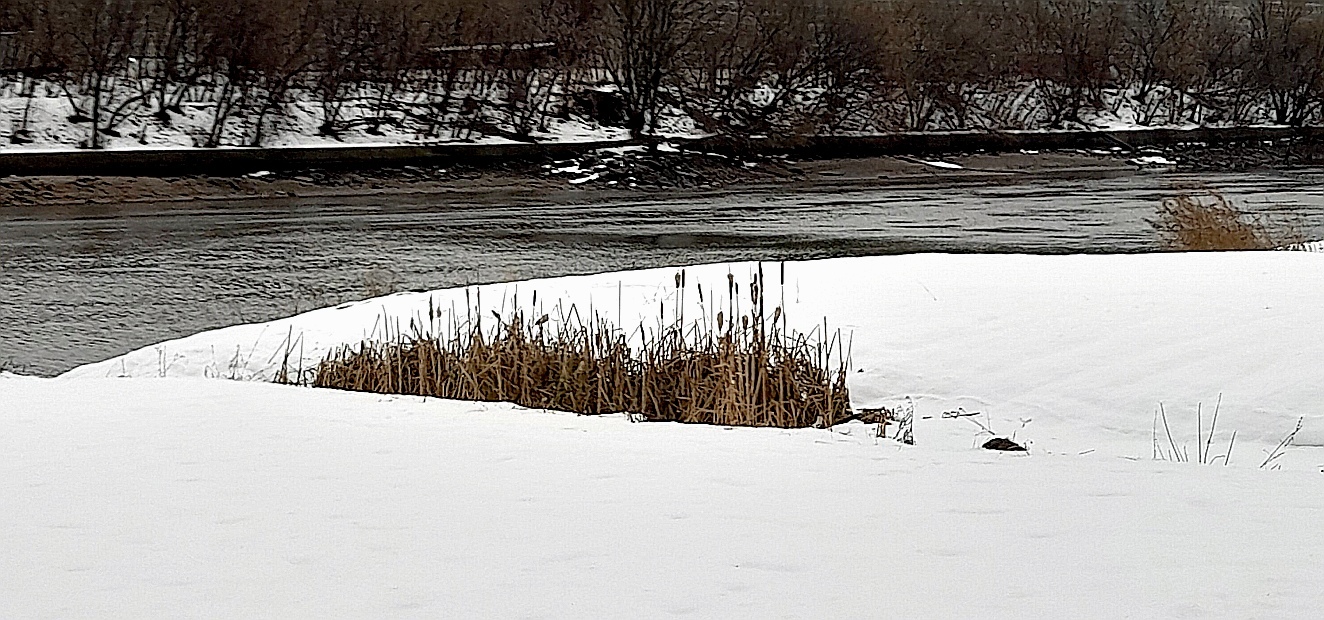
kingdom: Plantae
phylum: Tracheophyta
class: Liliopsida
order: Poales
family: Typhaceae
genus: Typha
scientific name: Typha latifolia
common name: Broadleaf cattail
